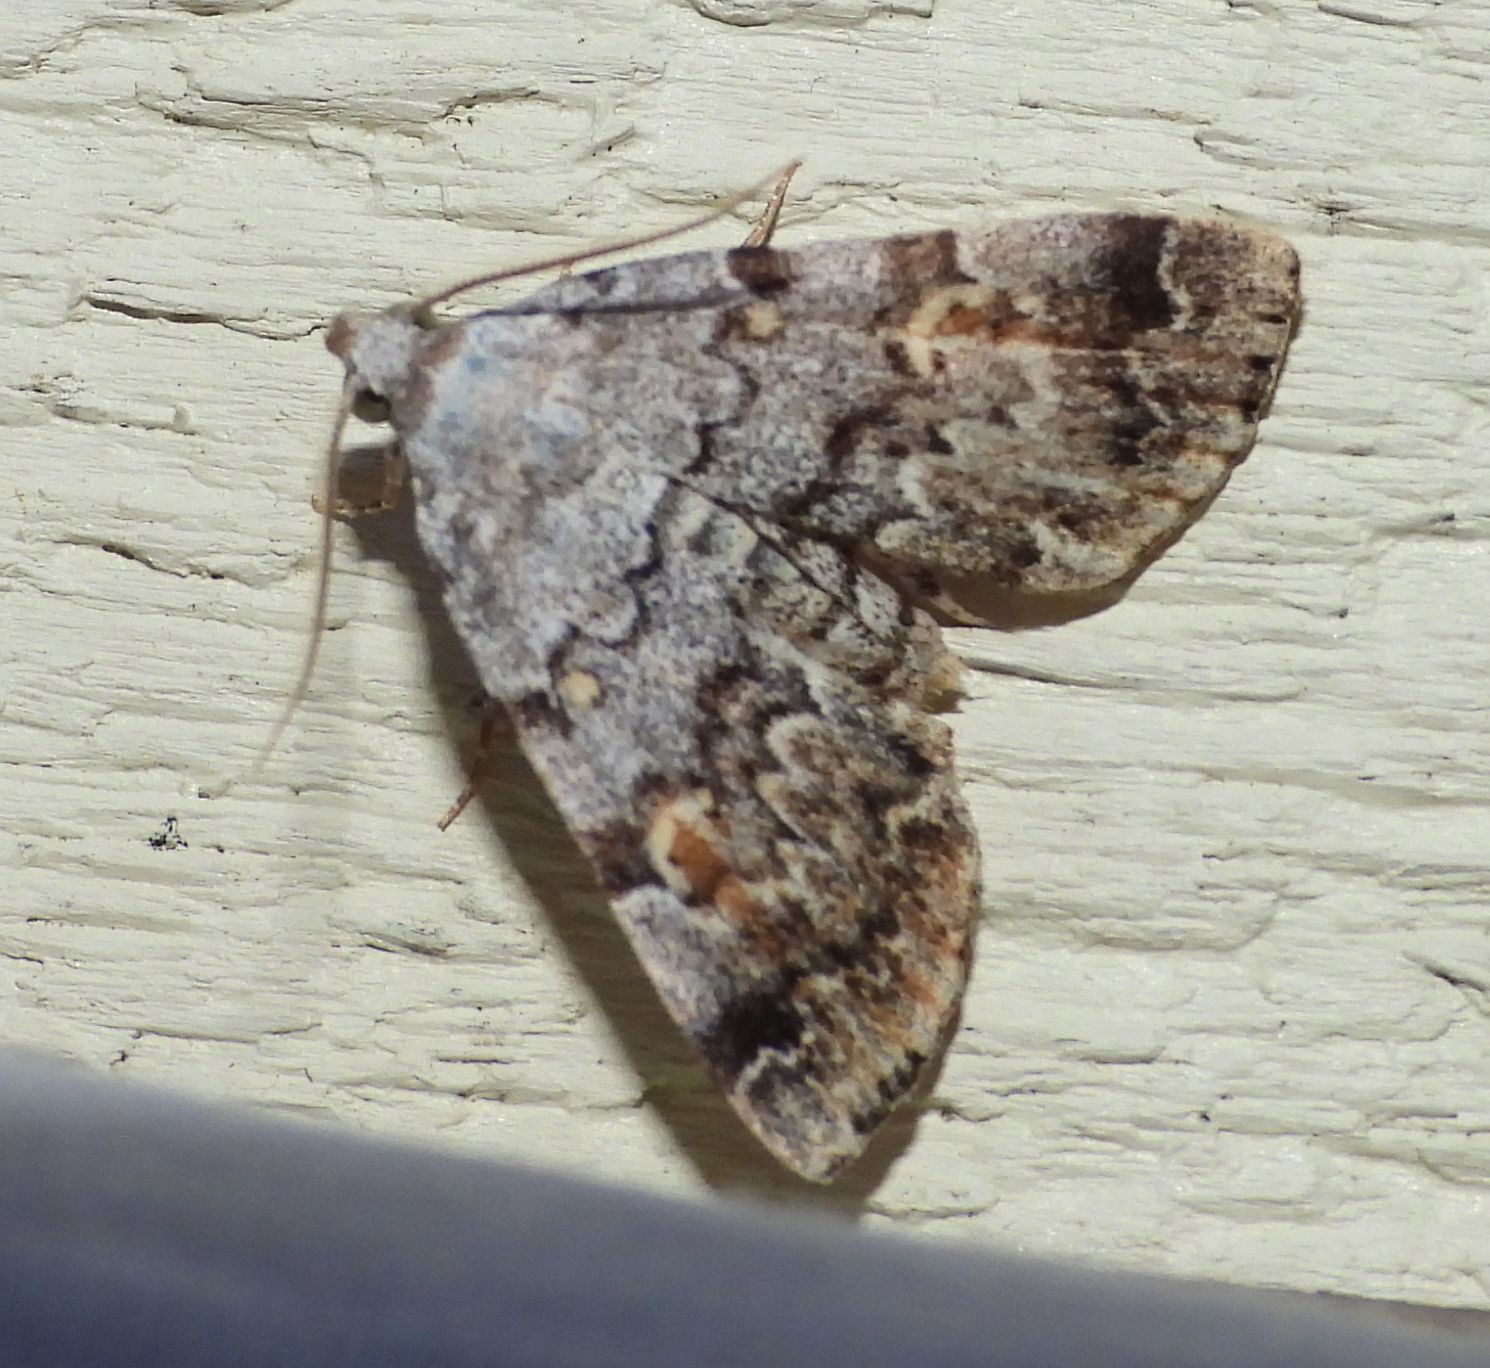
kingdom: Animalia
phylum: Arthropoda
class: Insecta
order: Lepidoptera
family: Erebidae
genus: Idia
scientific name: Idia americalis
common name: American idia moth
